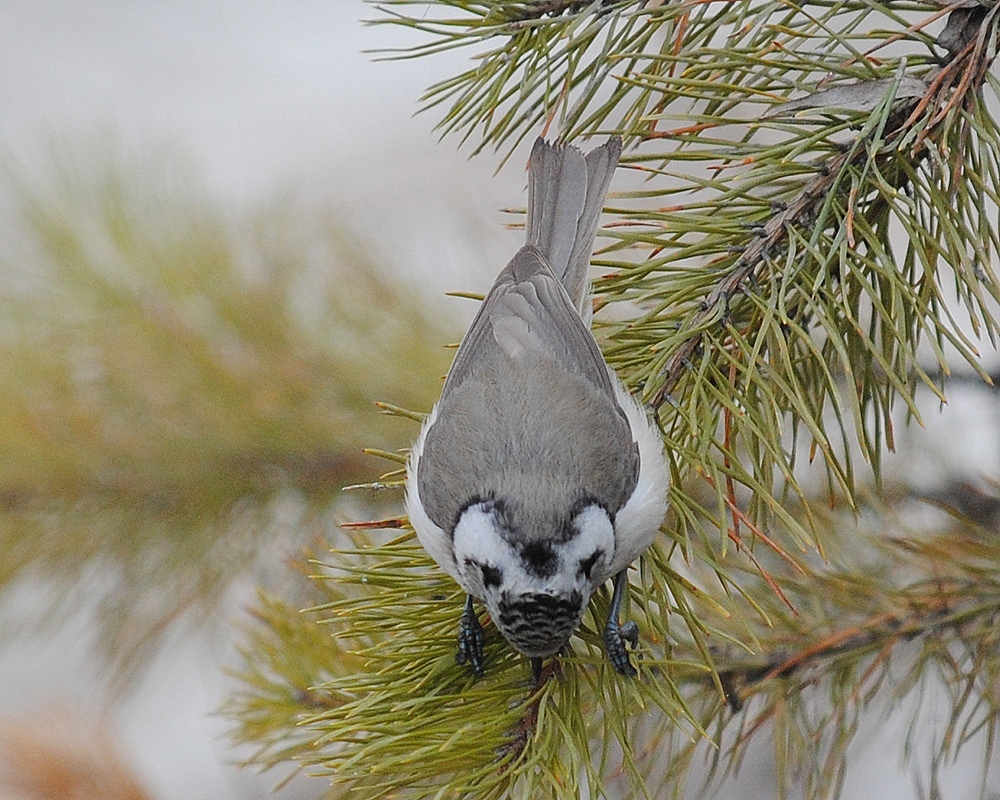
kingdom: Animalia
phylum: Chordata
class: Aves
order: Passeriformes
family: Paridae
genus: Lophophanes
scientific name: Lophophanes cristatus
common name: European crested tit
